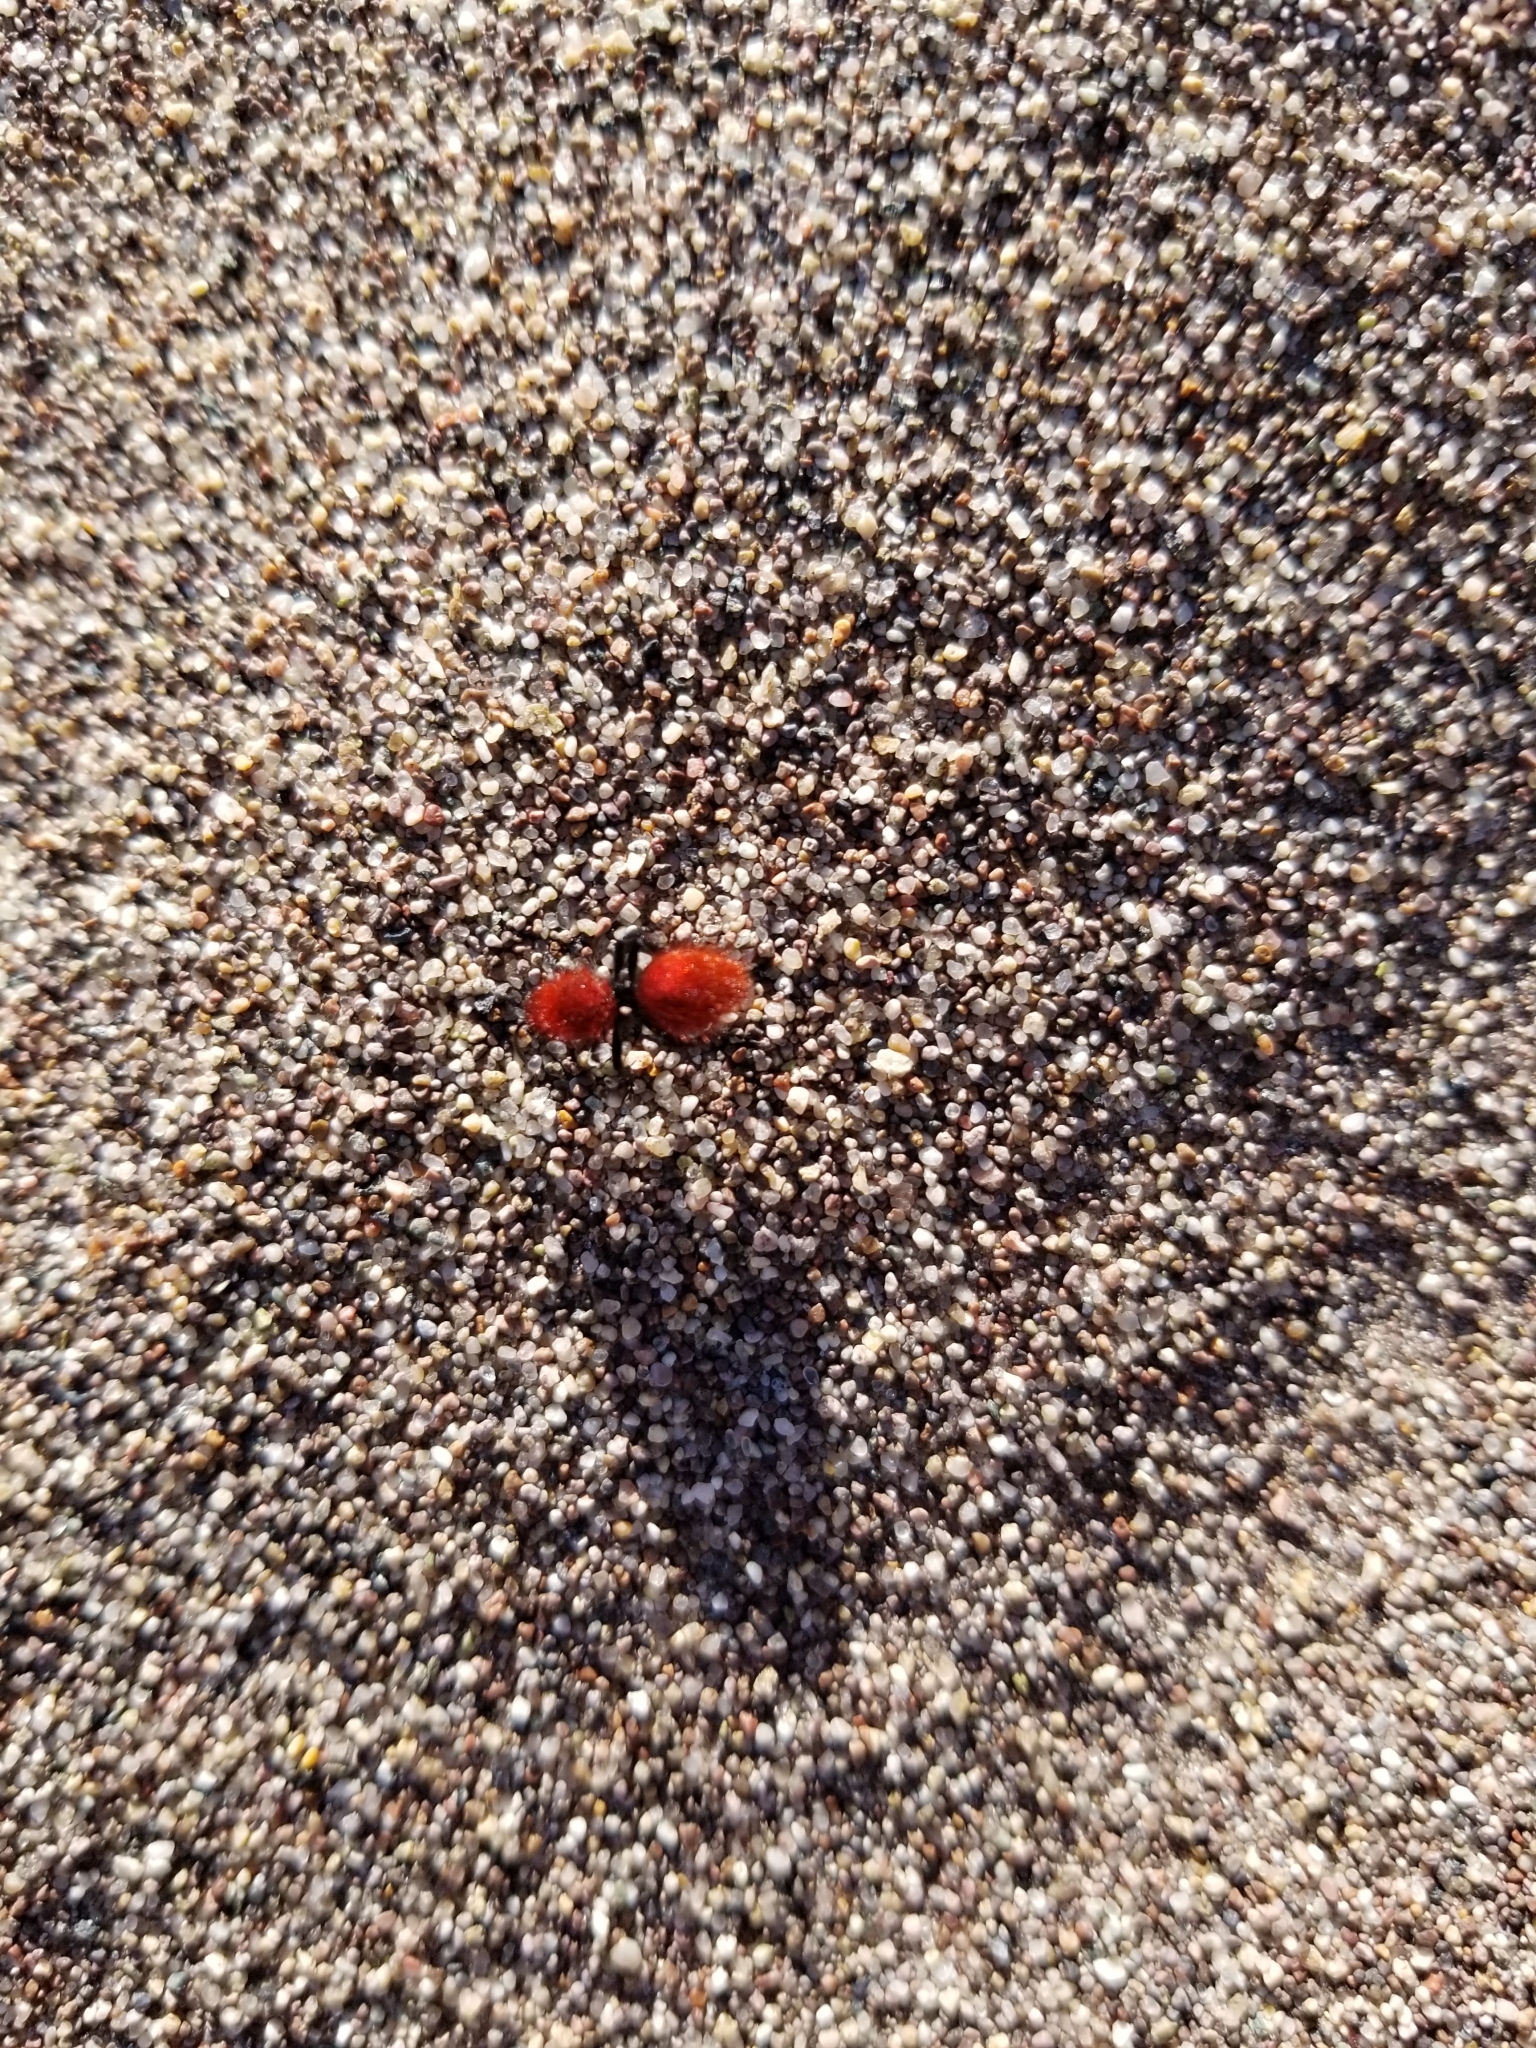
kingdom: Animalia
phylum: Arthropoda
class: Insecta
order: Hymenoptera
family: Mutillidae
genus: Dasymutilla
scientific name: Dasymutilla vestita
